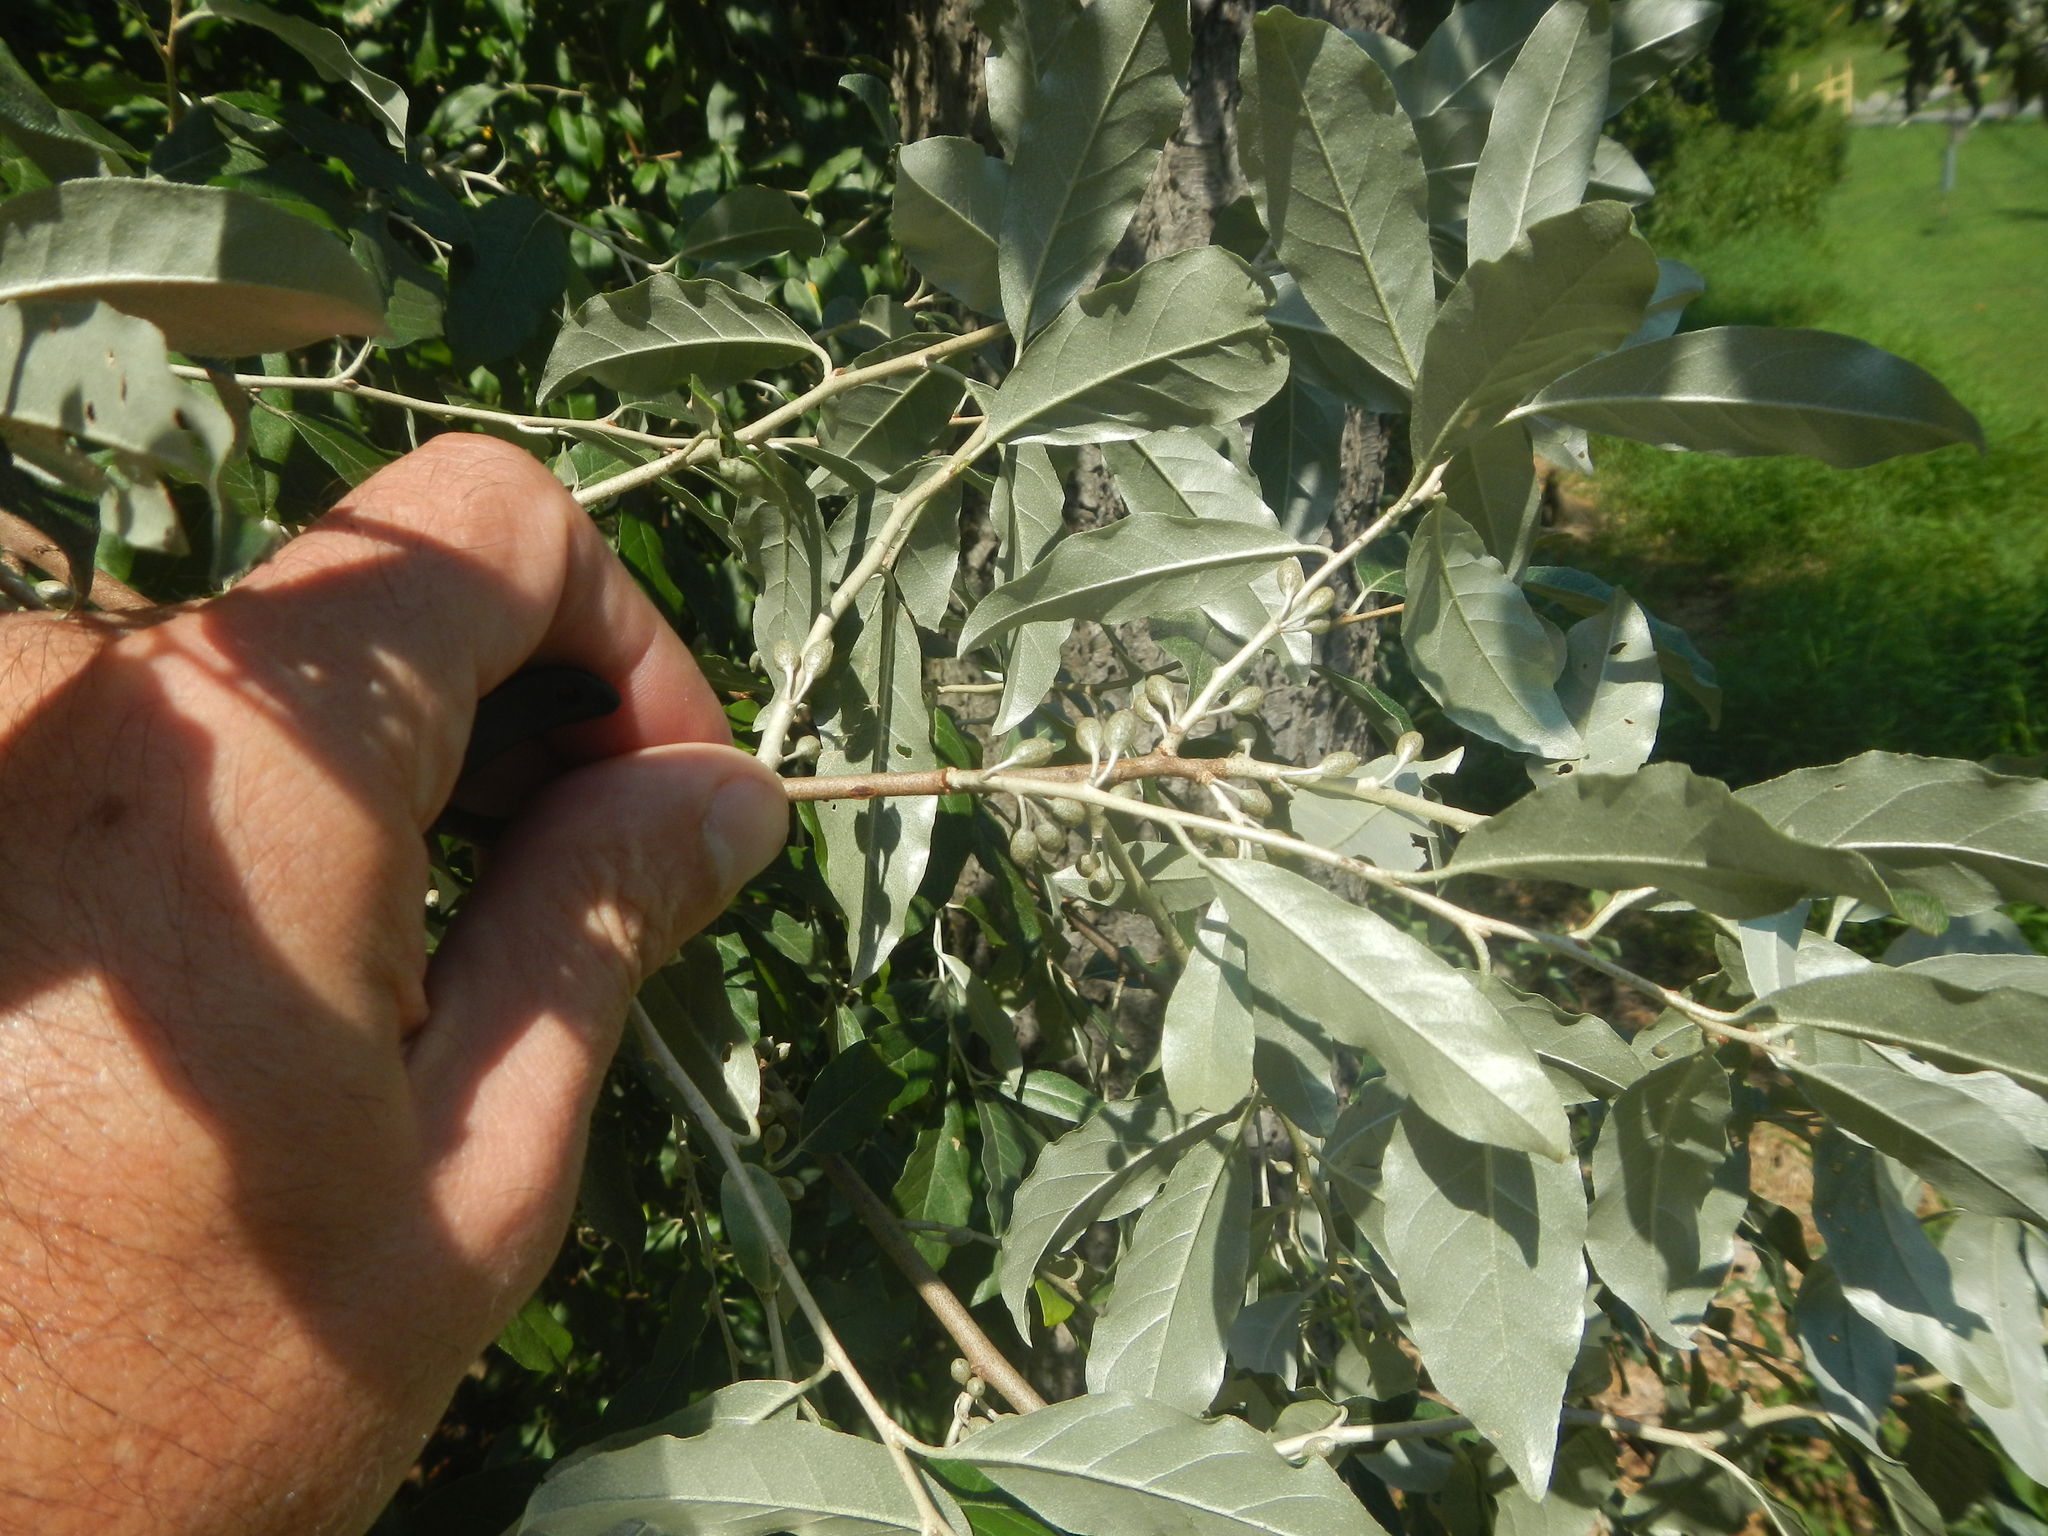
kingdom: Plantae
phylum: Tracheophyta
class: Magnoliopsida
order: Rosales
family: Elaeagnaceae
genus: Elaeagnus
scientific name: Elaeagnus umbellata
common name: Autumn olive
